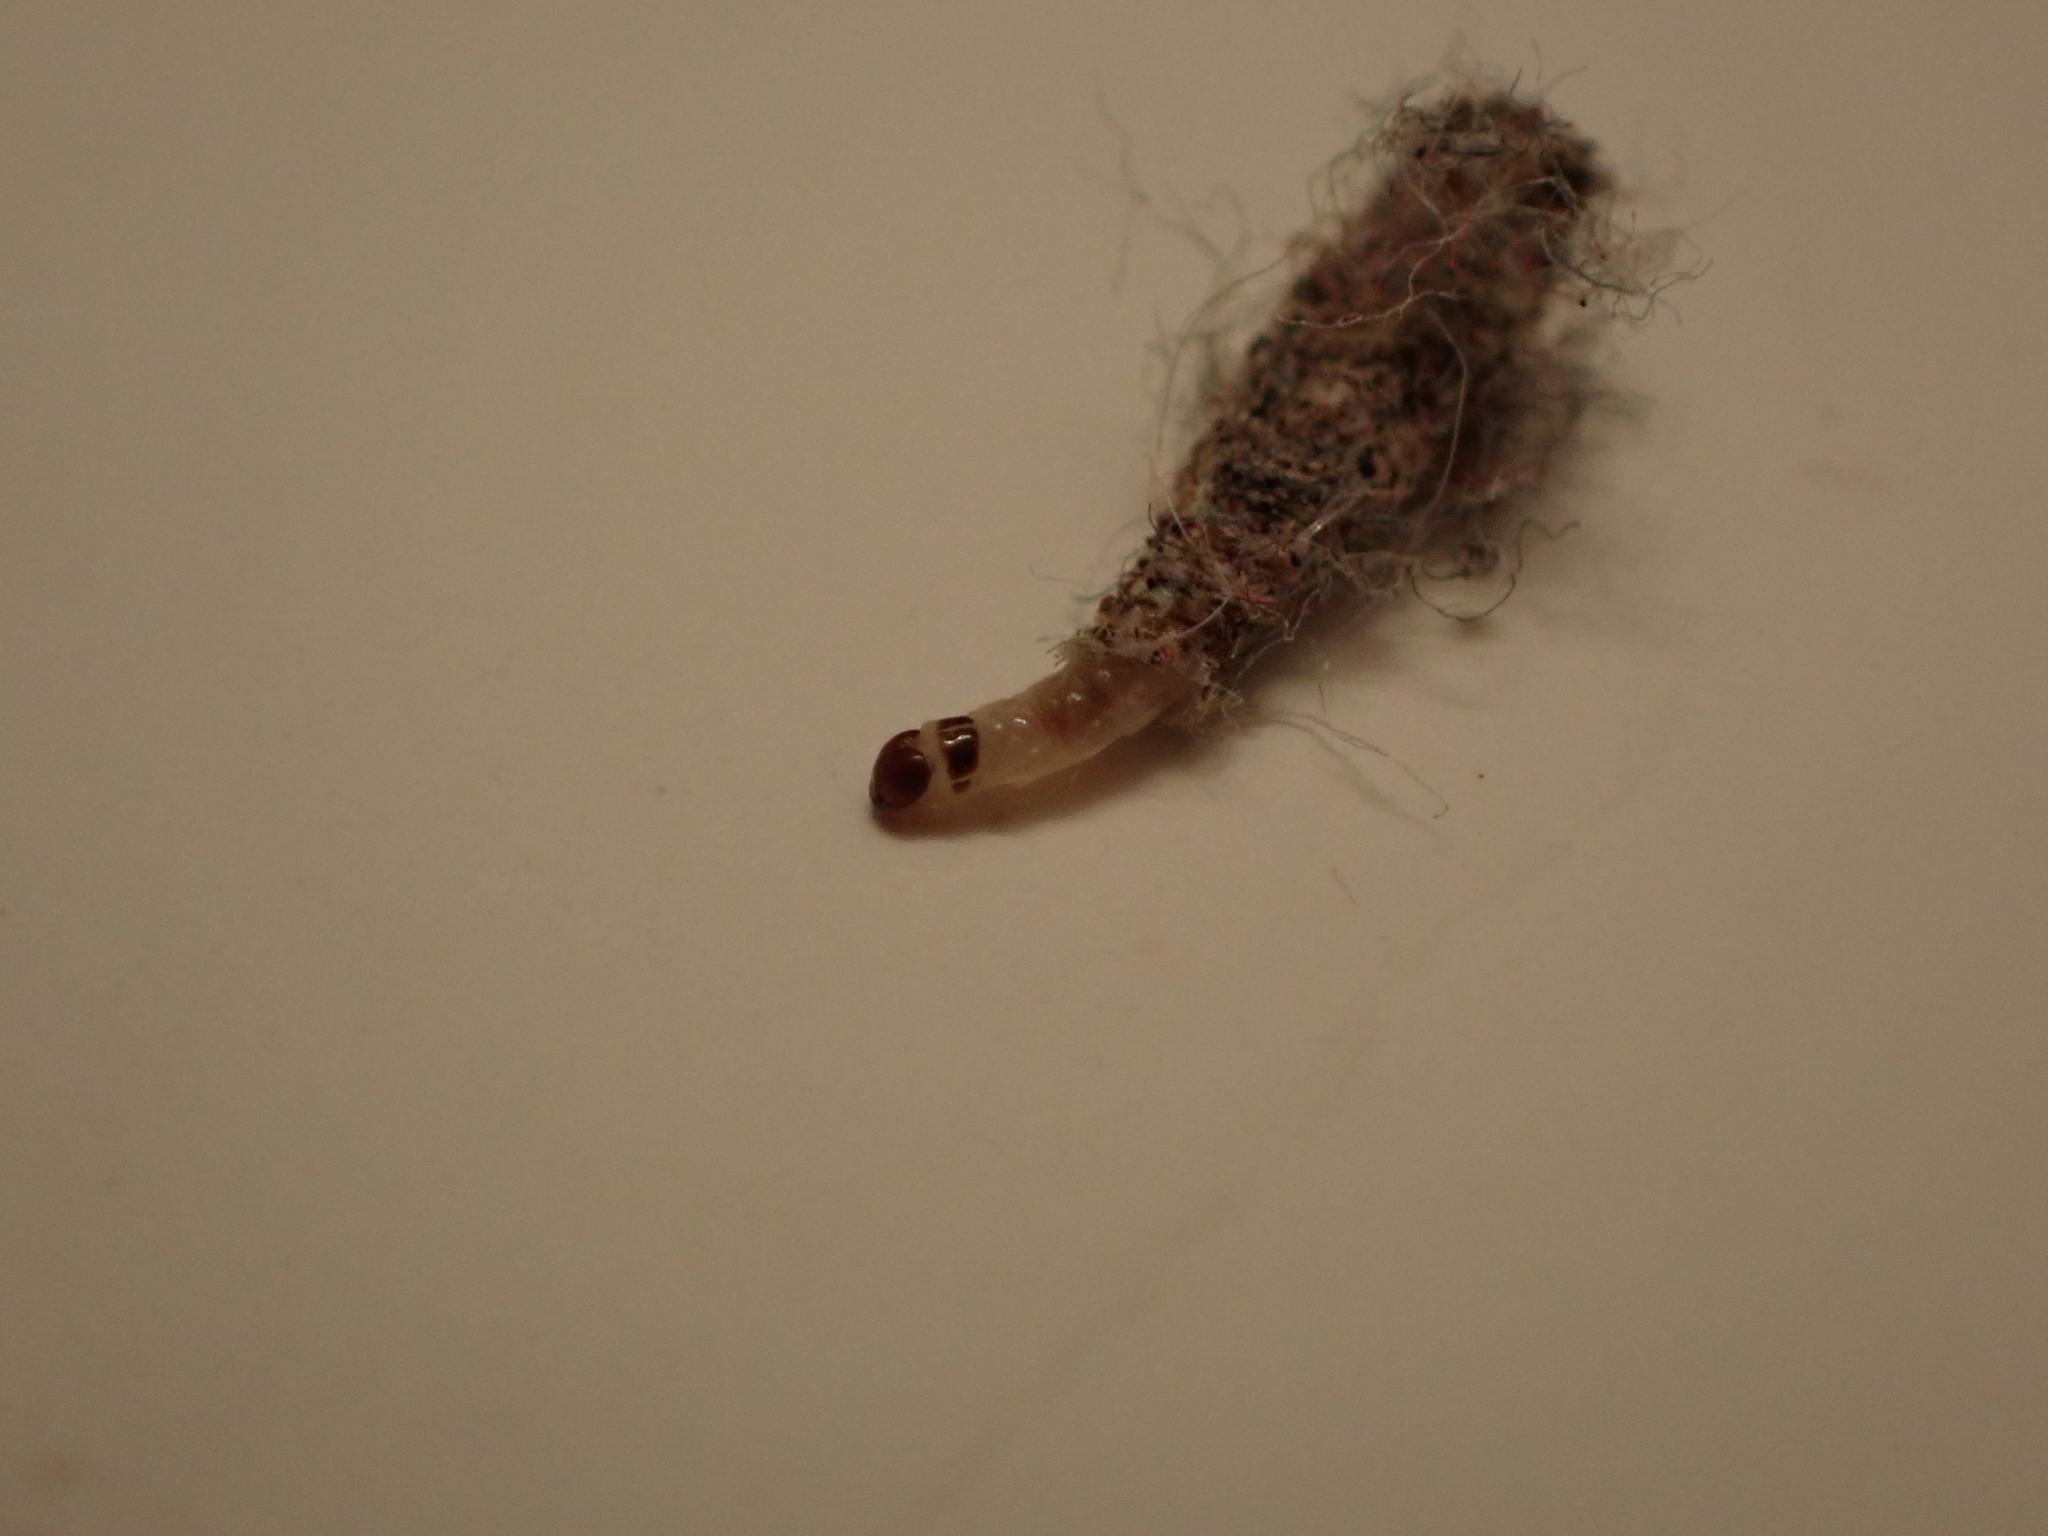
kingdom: Animalia
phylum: Arthropoda
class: Insecta
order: Lepidoptera
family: Tineidae
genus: Tinea
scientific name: Tinea pellionella
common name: Case-making clothes moth
